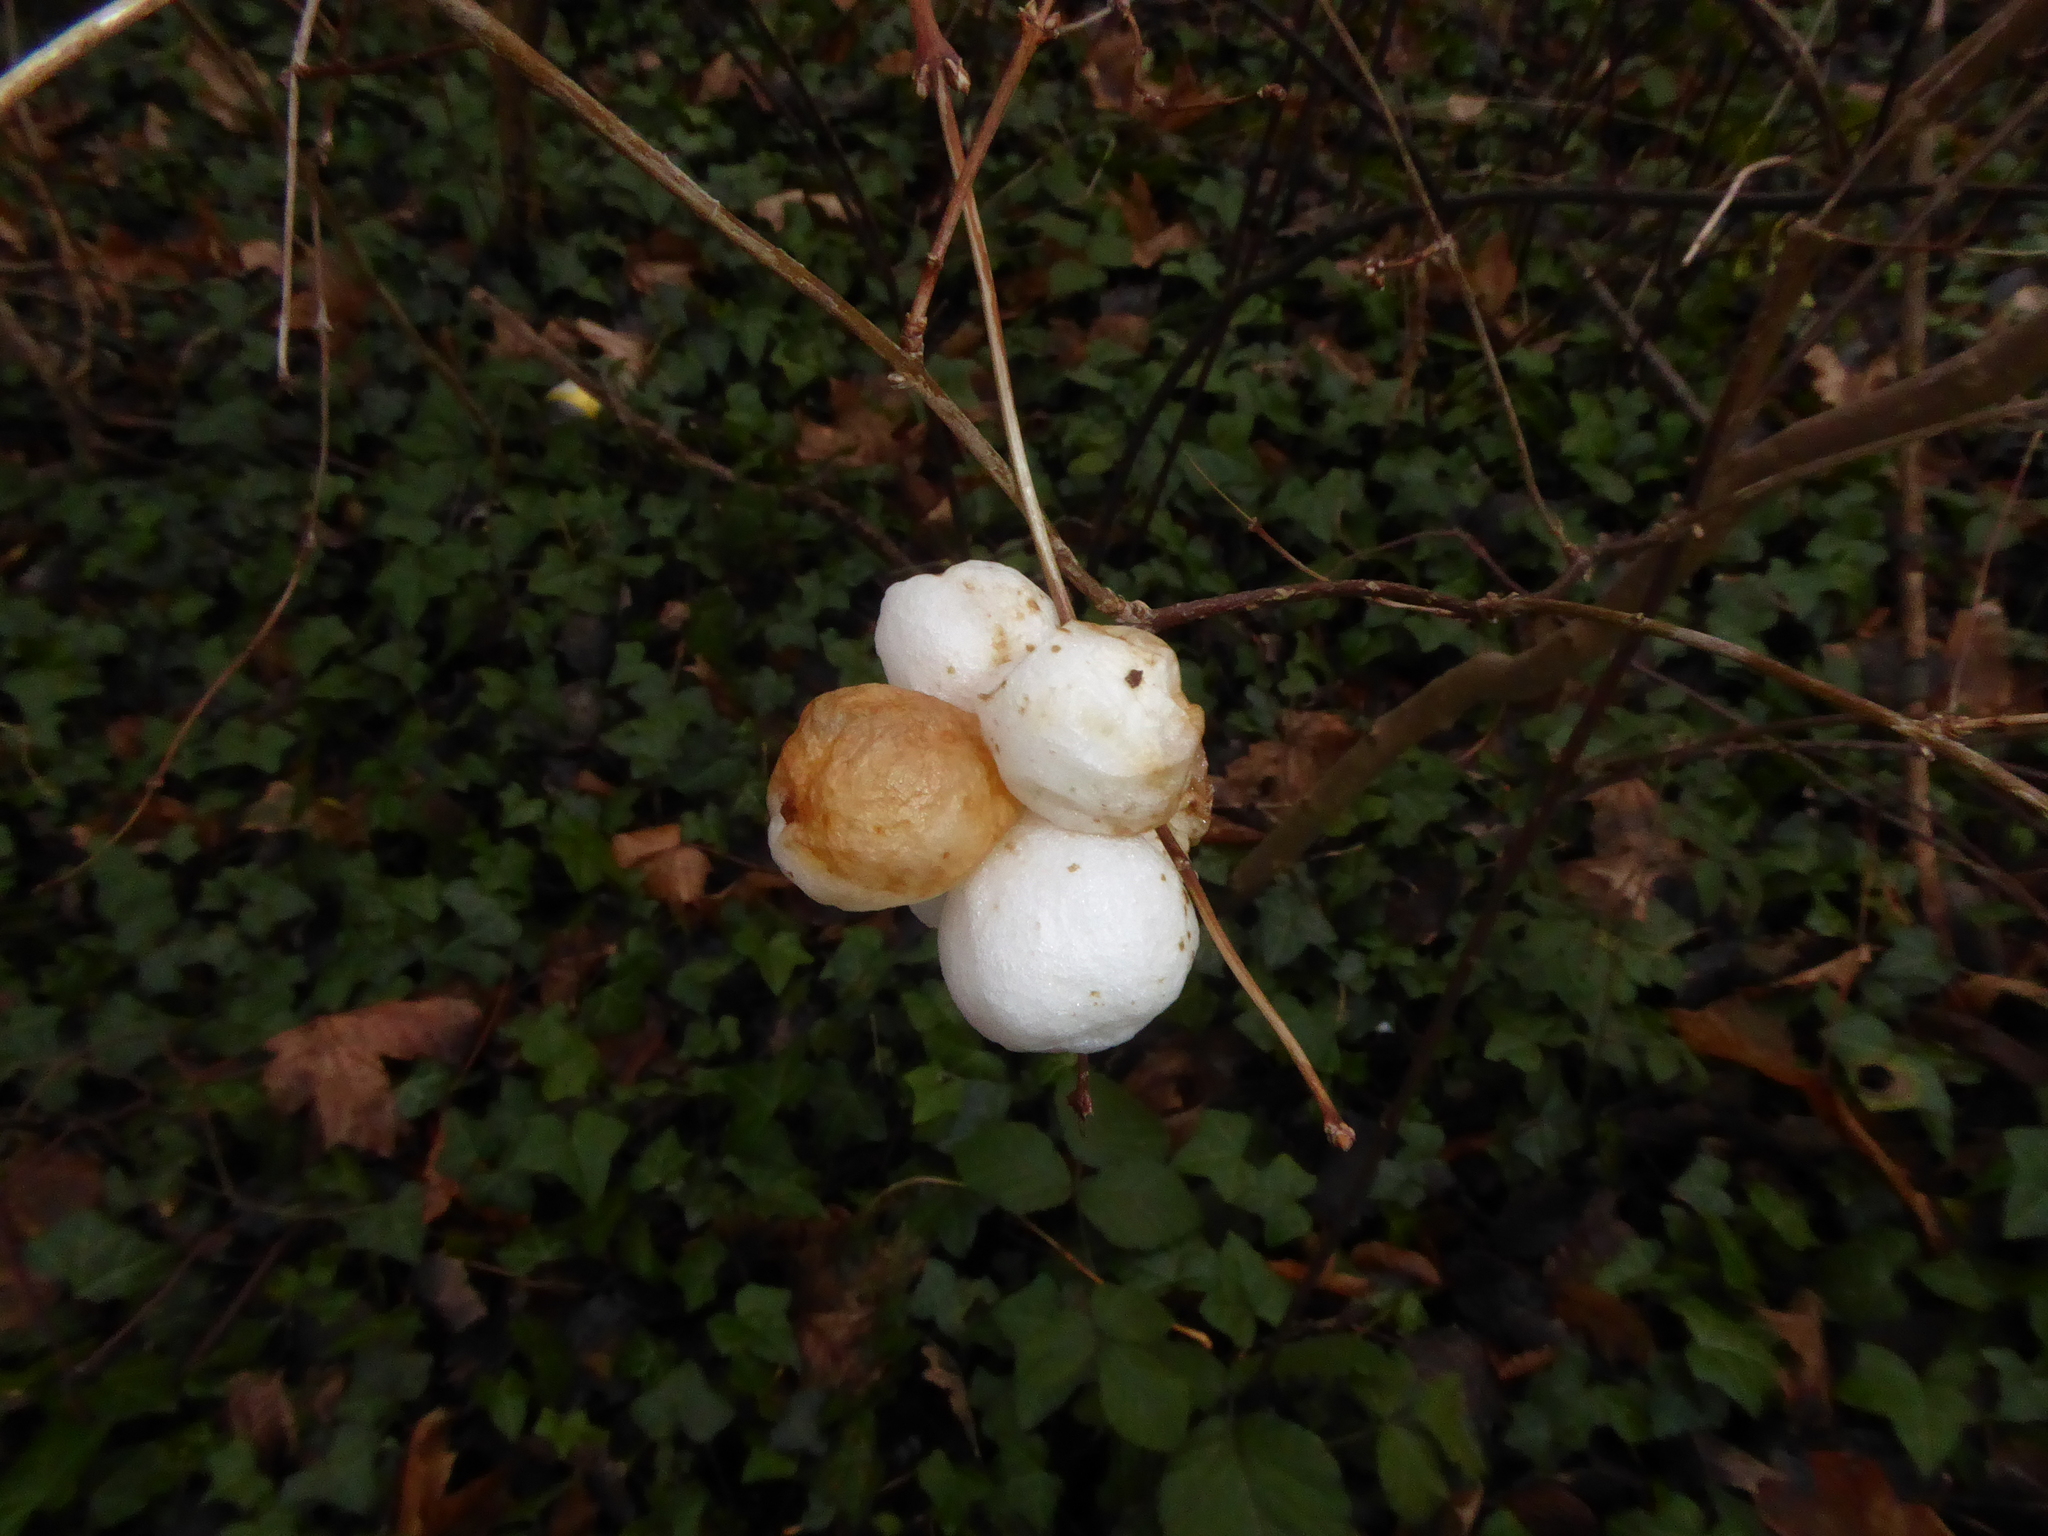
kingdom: Plantae
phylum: Tracheophyta
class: Magnoliopsida
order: Dipsacales
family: Caprifoliaceae
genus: Symphoricarpos
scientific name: Symphoricarpos albus
